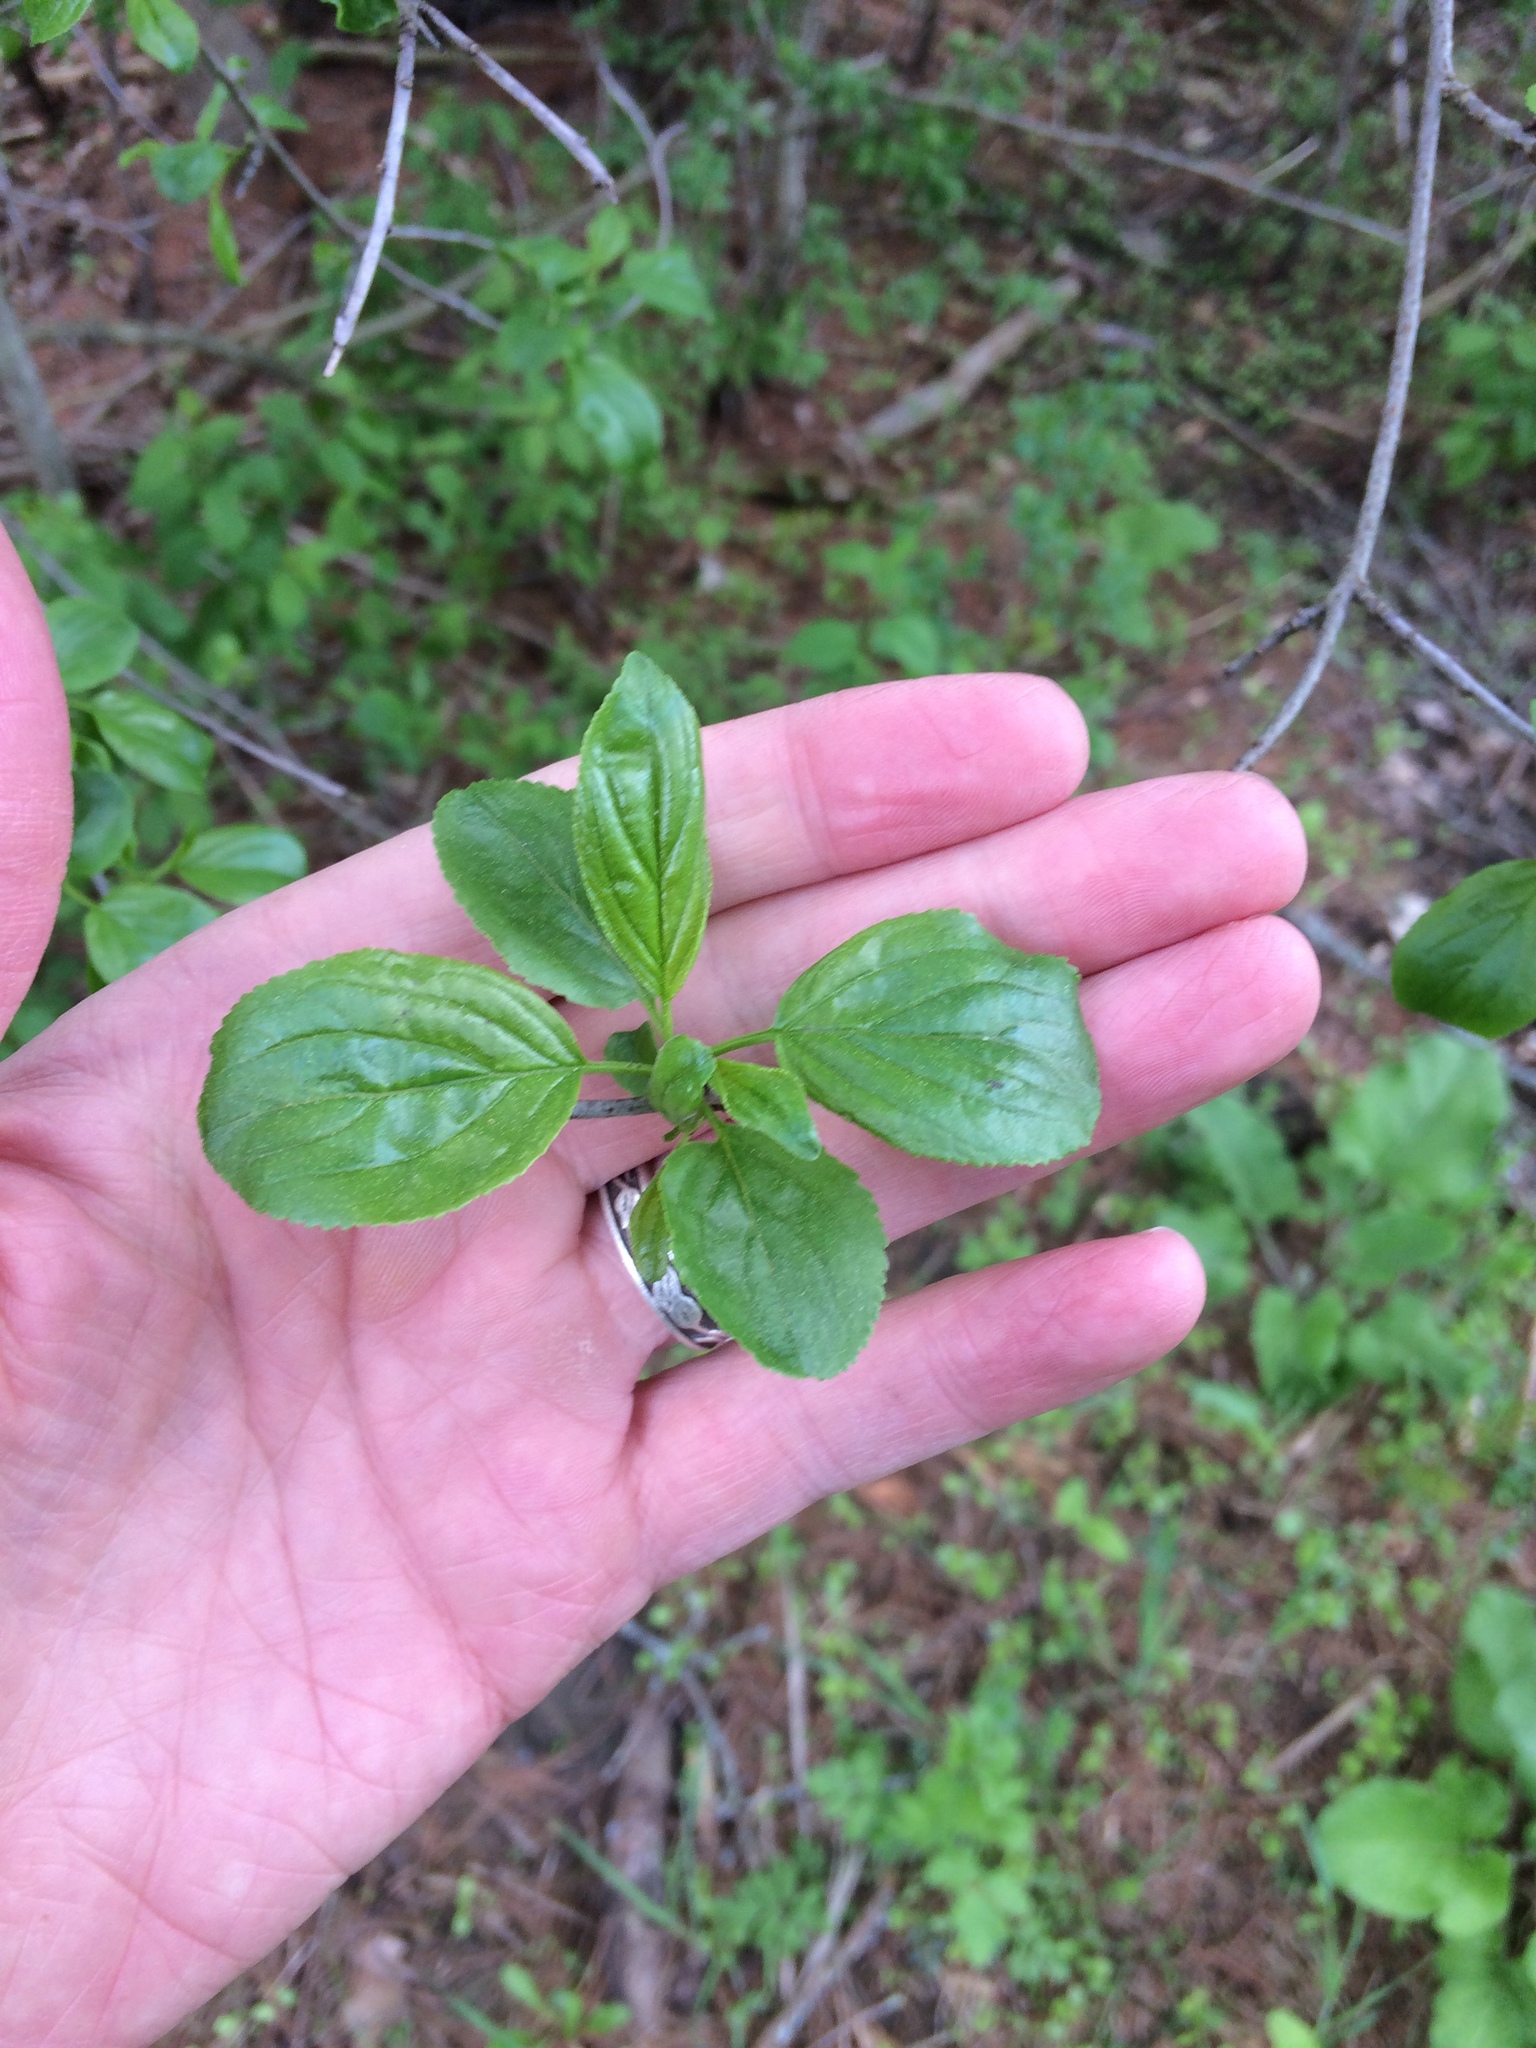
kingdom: Plantae
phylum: Tracheophyta
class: Magnoliopsida
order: Rosales
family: Rhamnaceae
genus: Rhamnus
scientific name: Rhamnus cathartica
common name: Common buckthorn
